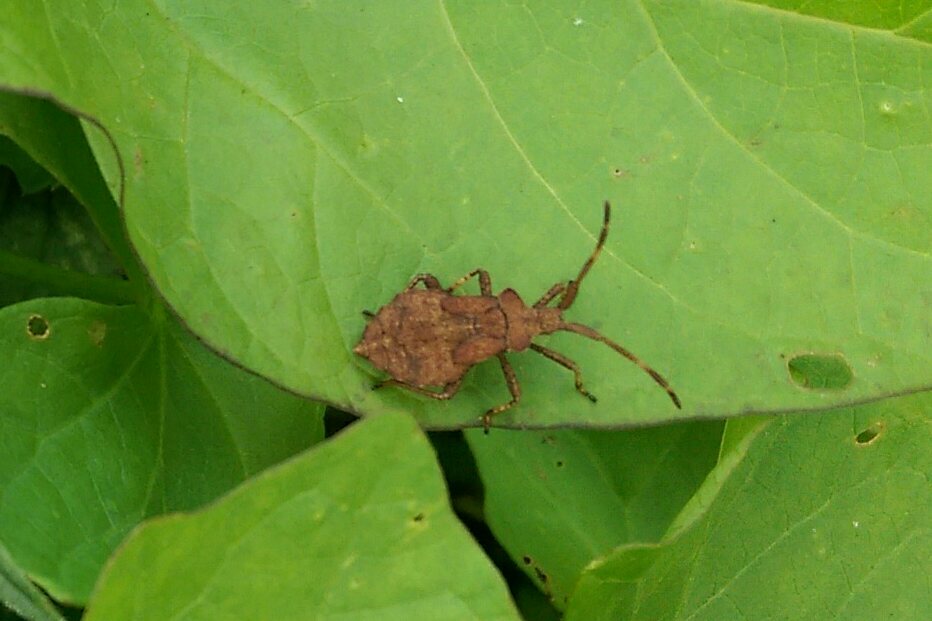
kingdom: Animalia
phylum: Arthropoda
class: Insecta
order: Hemiptera
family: Coreidae
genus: Coreus
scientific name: Coreus marginatus
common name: Dock bug
